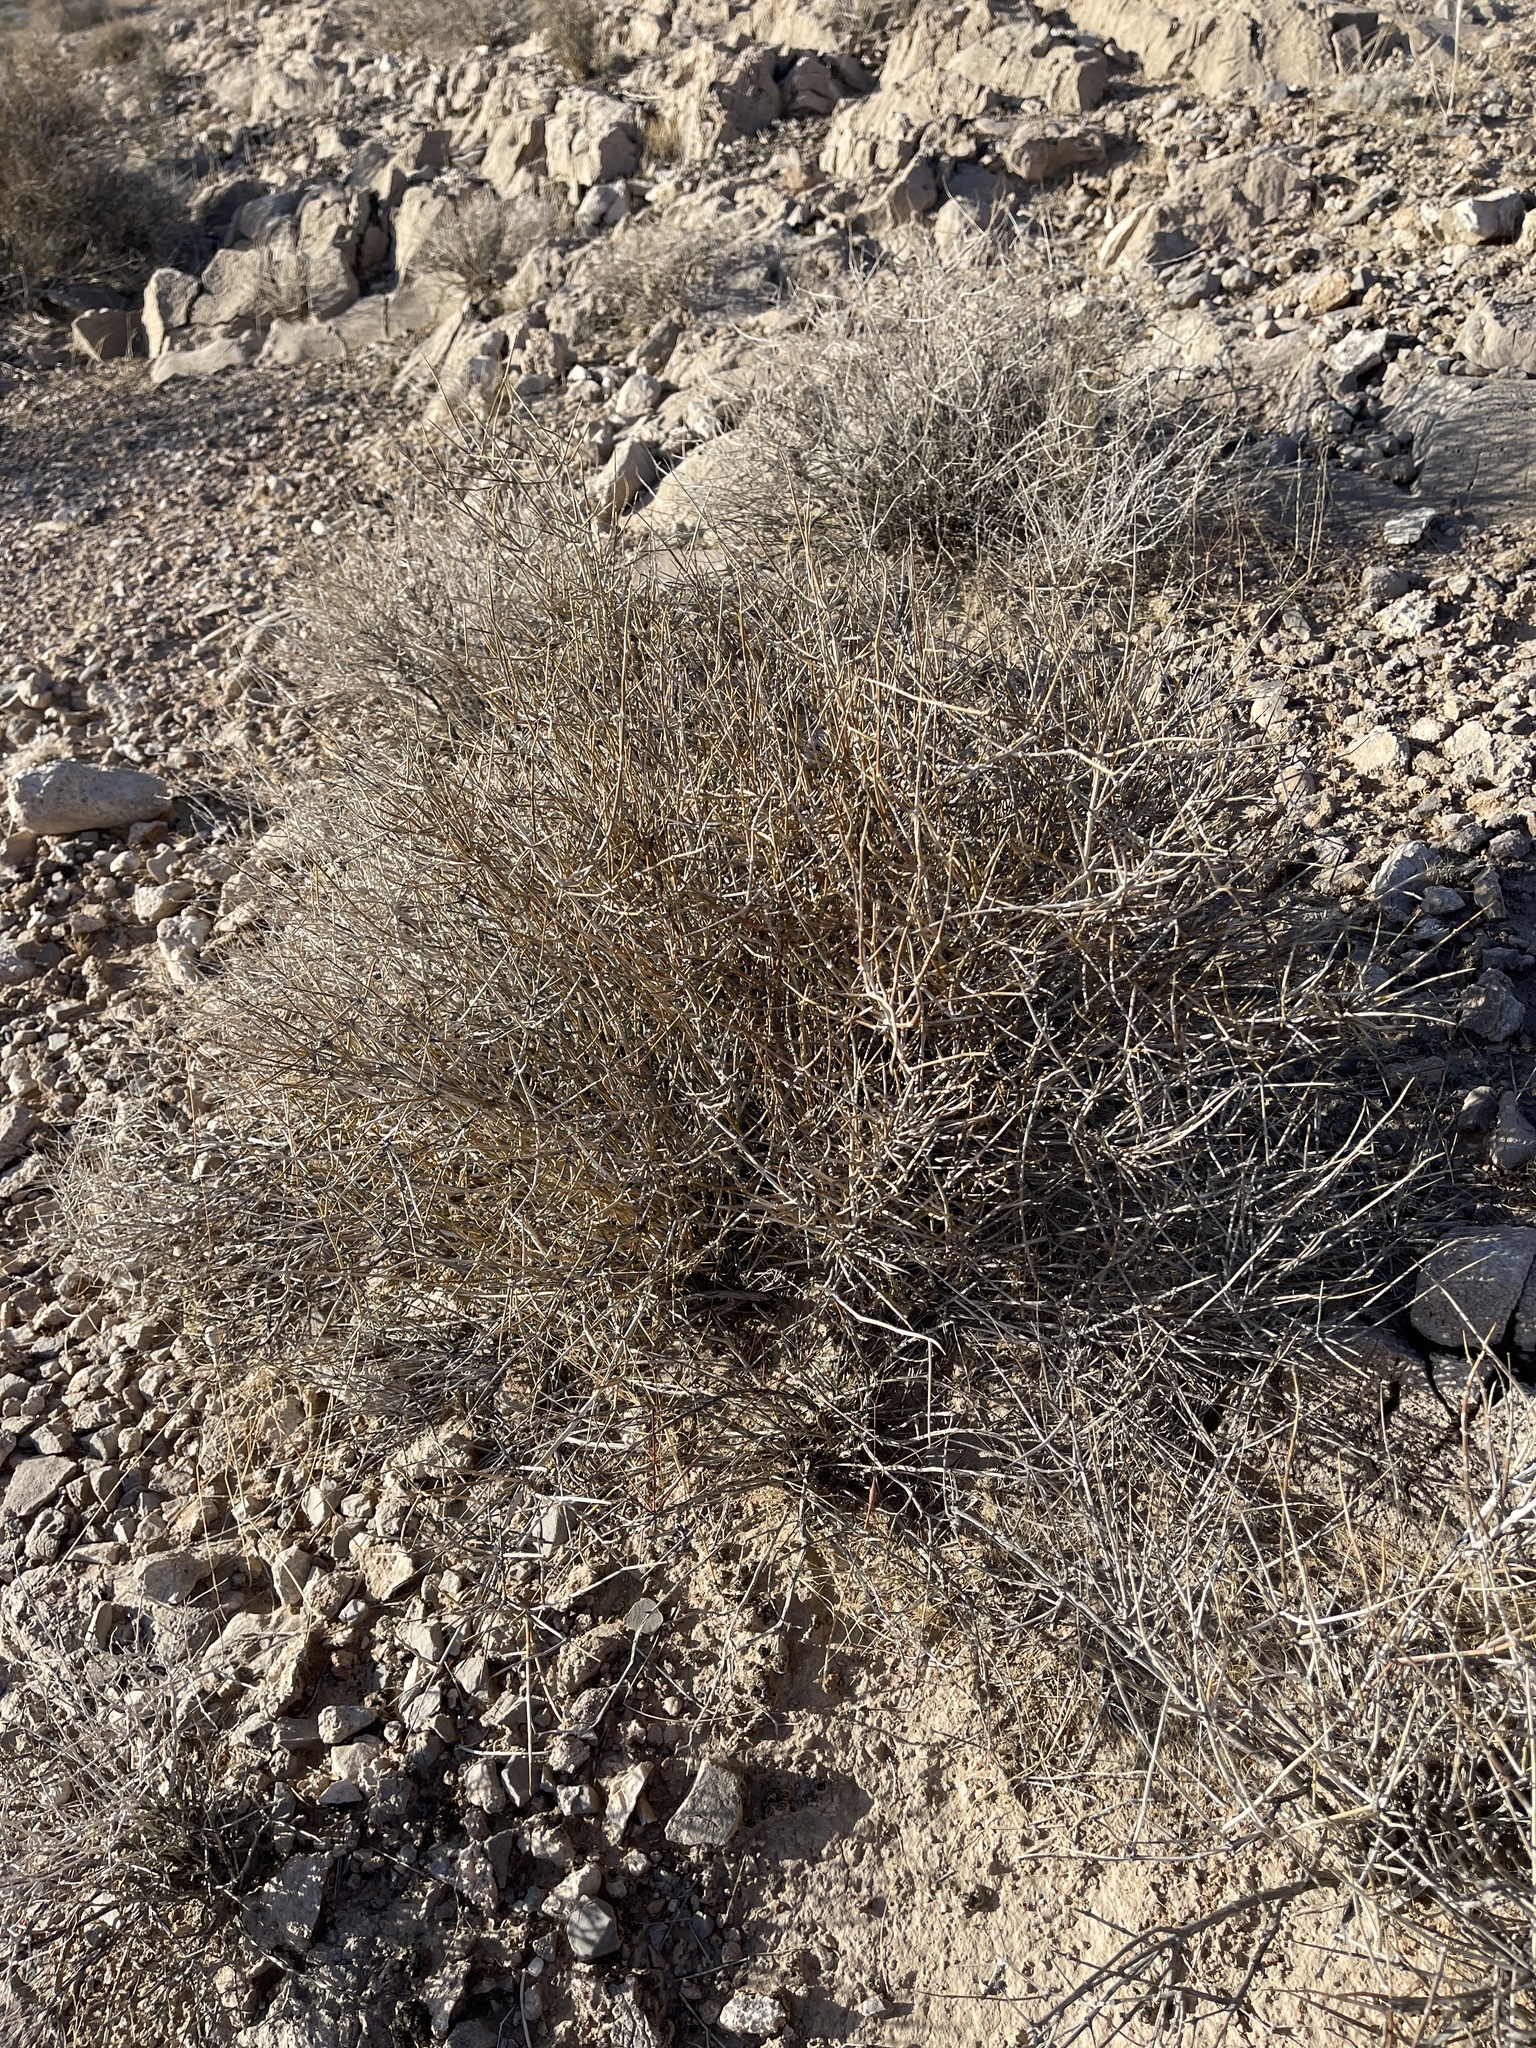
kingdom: Plantae
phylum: Tracheophyta
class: Gnetopsida
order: Ephedrales
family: Ephedraceae
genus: Ephedra
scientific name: Ephedra nevadensis
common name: Gray ephedra
